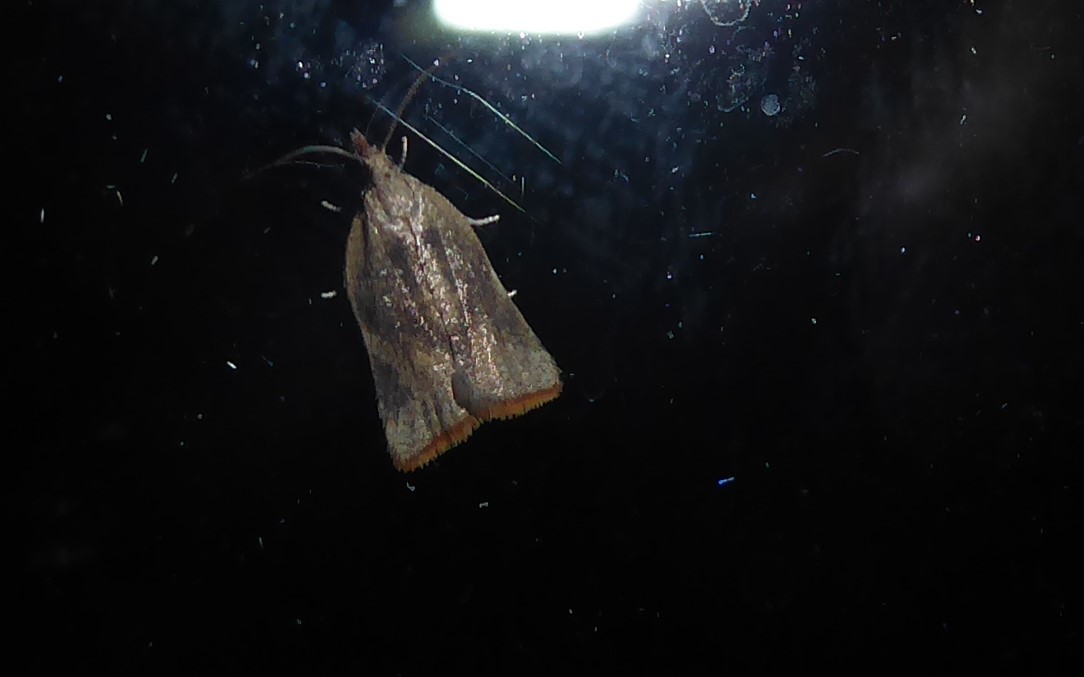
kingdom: Animalia
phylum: Arthropoda
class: Insecta
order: Lepidoptera
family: Tortricidae
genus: Catamacta
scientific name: Catamacta gavisana
